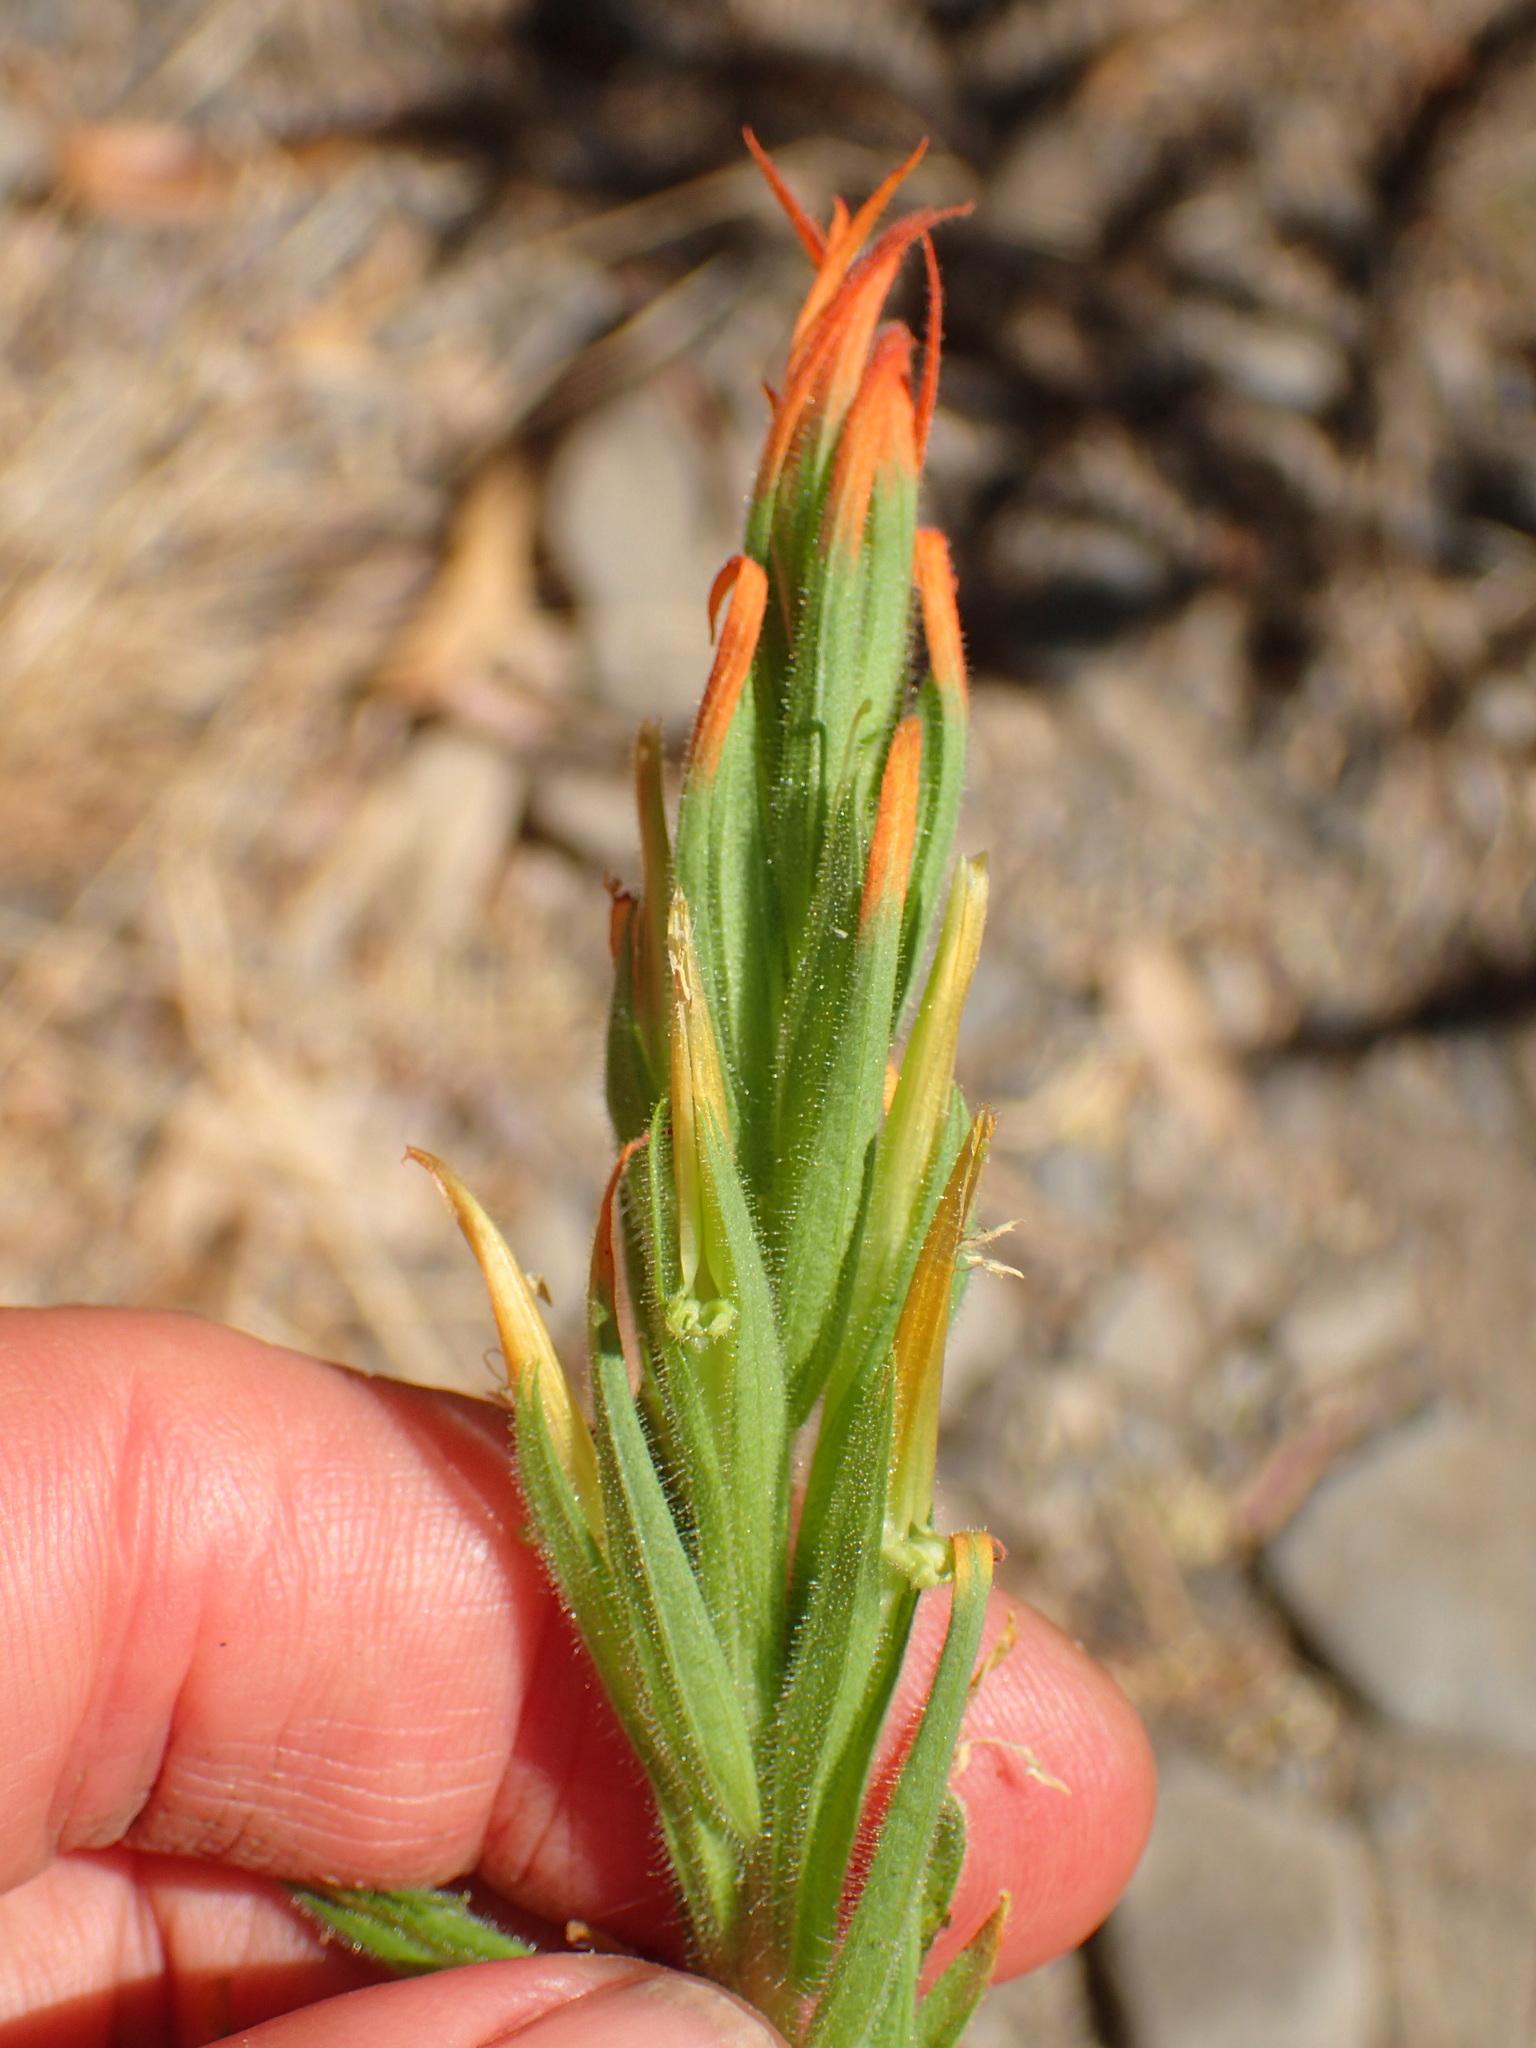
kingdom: Plantae
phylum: Tracheophyta
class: Magnoliopsida
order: Lamiales
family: Orobanchaceae
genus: Castilleja
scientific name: Castilleja minor
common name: Seep paintbrush
